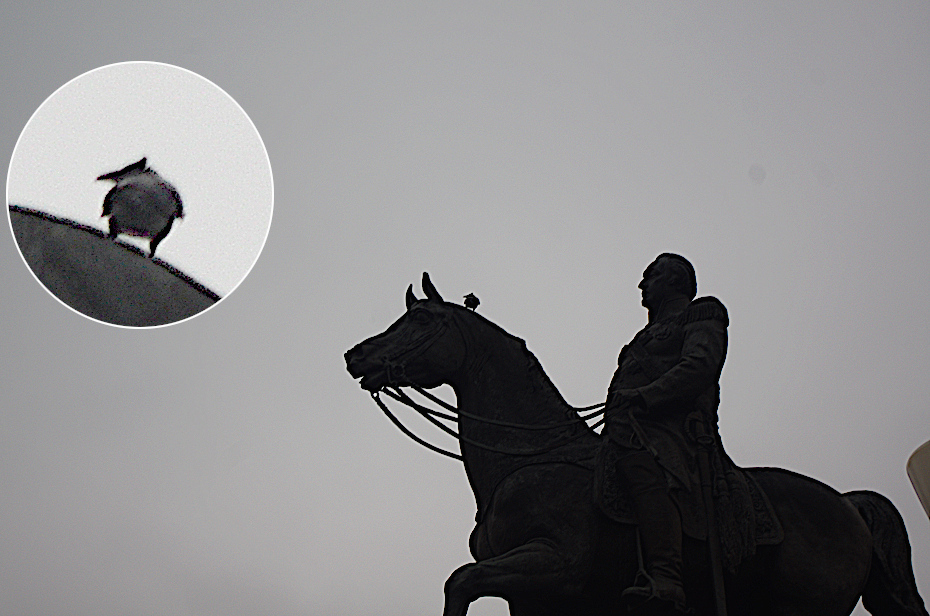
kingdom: Animalia
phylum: Chordata
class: Aves
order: Passeriformes
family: Corvidae
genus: Corvus
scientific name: Corvus cornix
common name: Hooded crow
